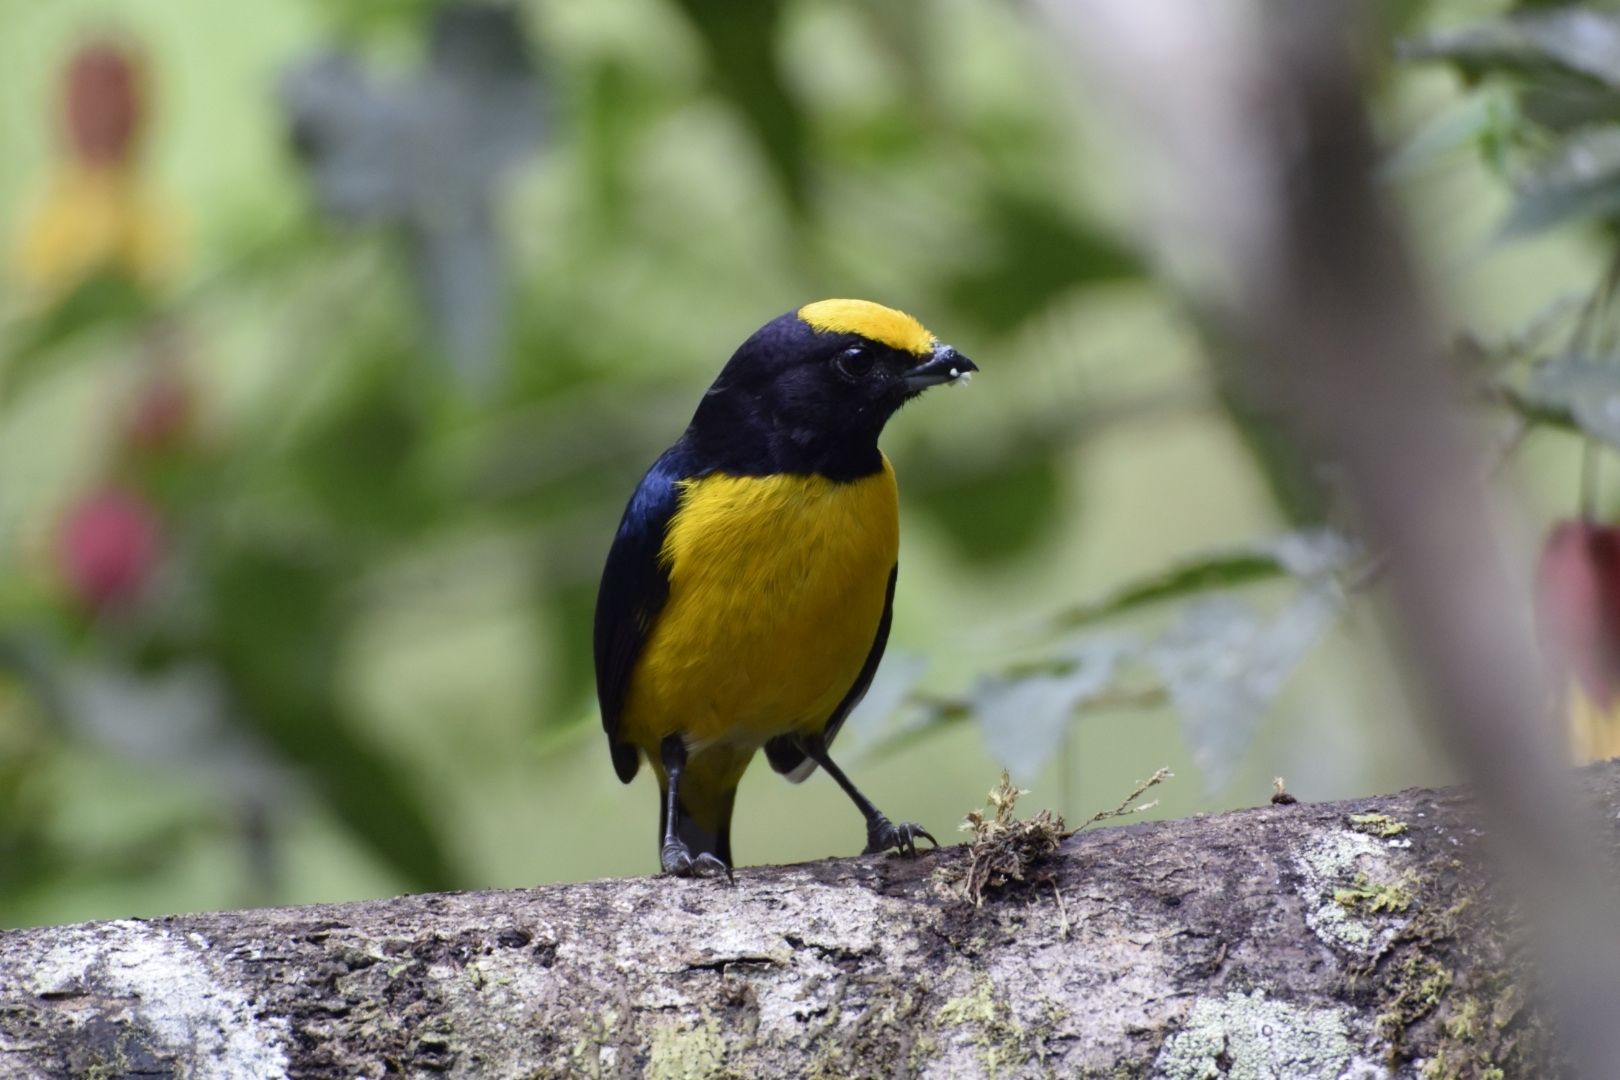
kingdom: Animalia
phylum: Chordata
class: Aves
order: Passeriformes
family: Fringillidae
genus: Euphonia
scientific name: Euphonia xanthogaster
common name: Orange-bellied euphonia
